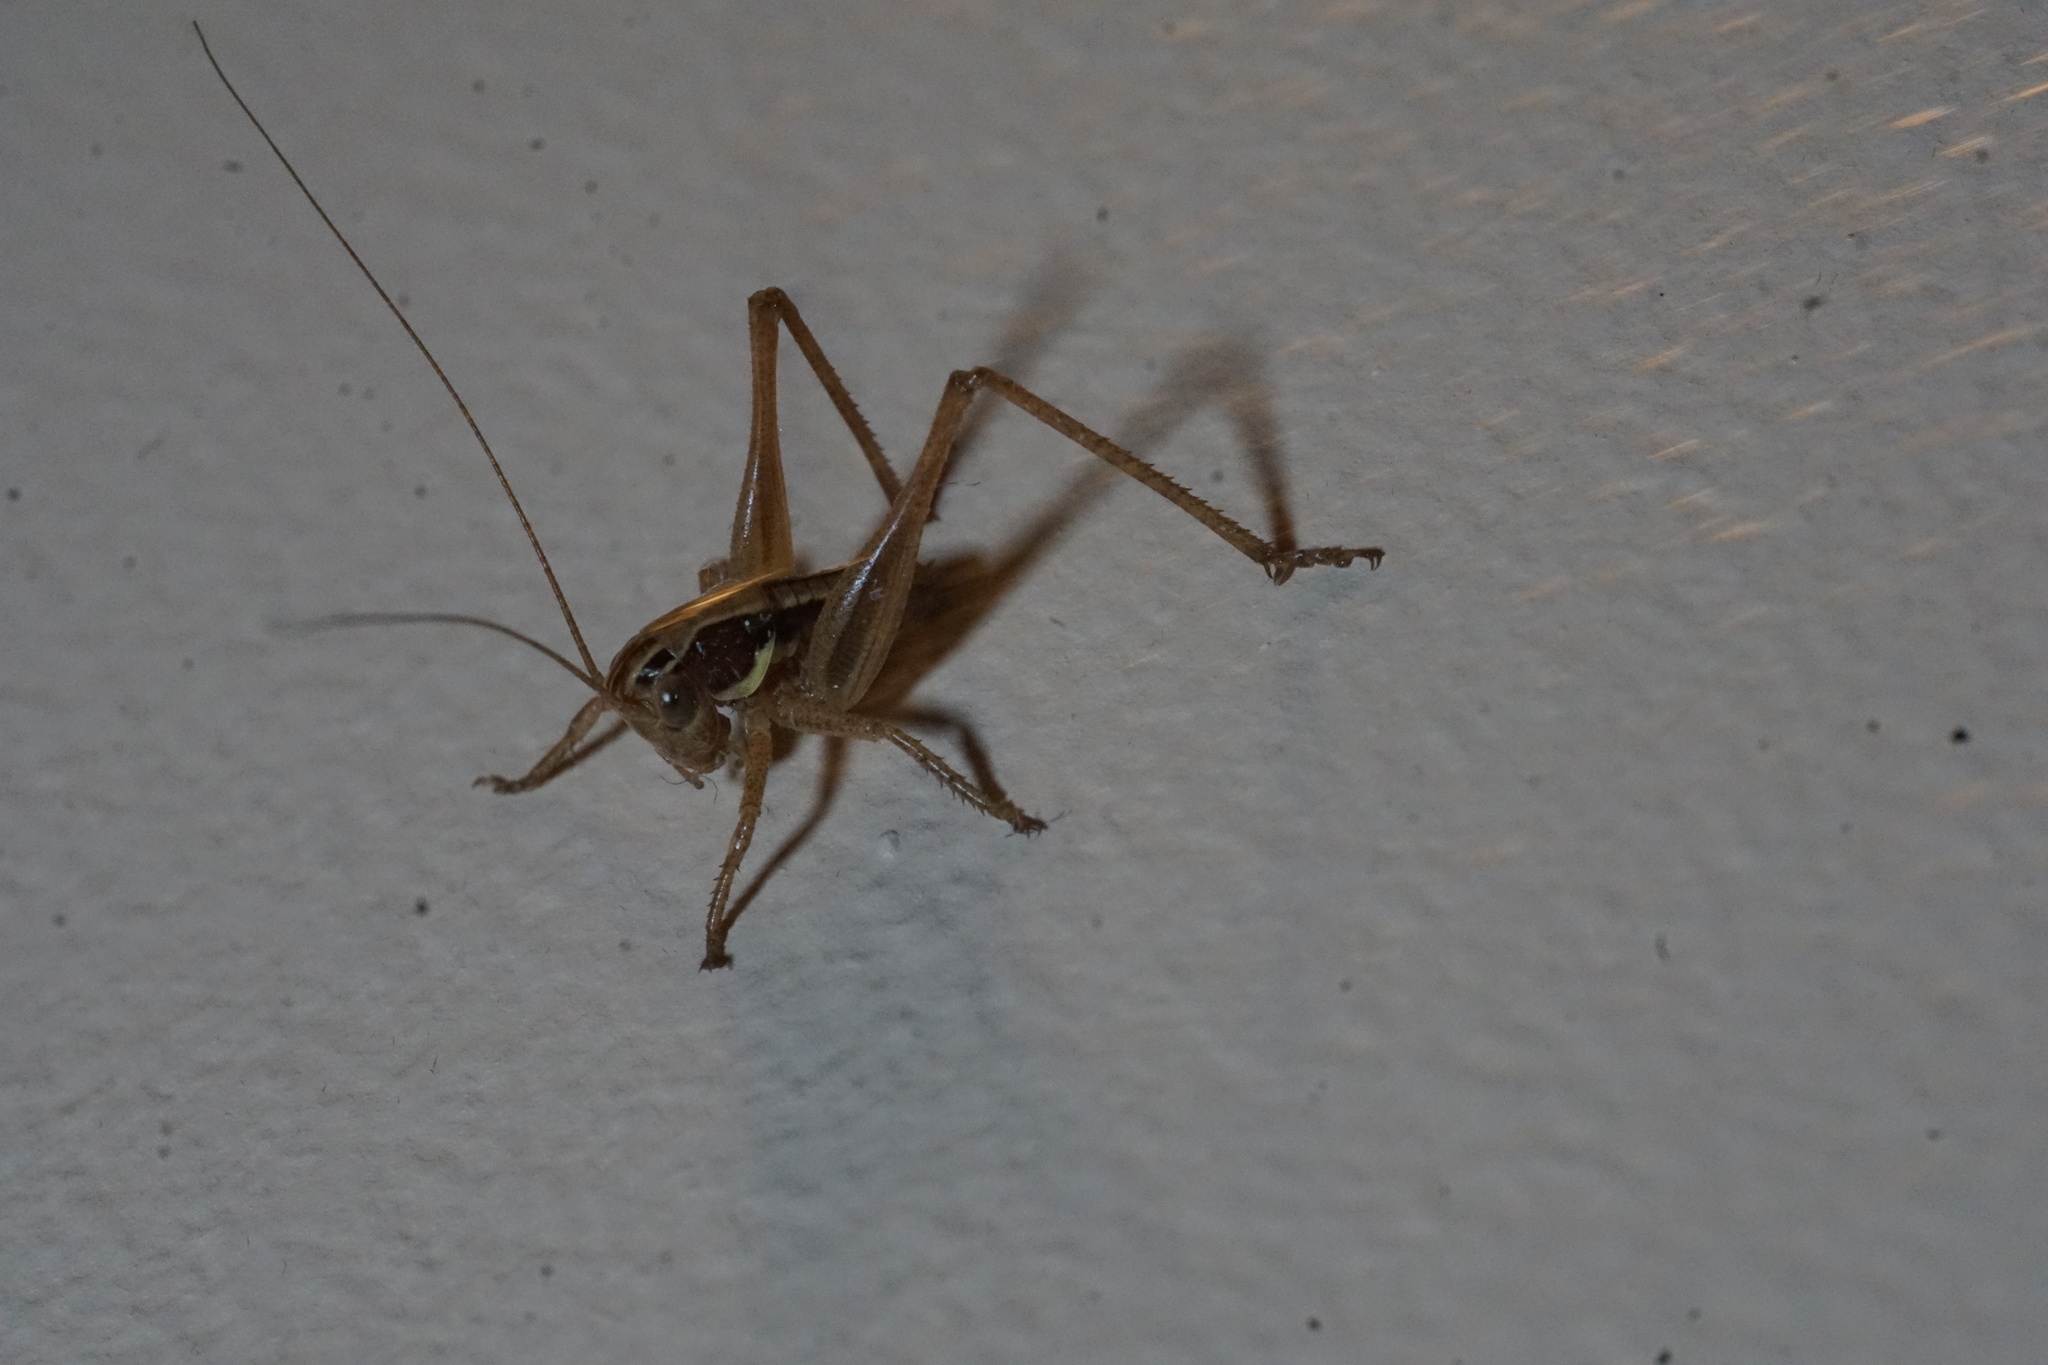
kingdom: Animalia
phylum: Arthropoda
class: Insecta
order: Orthoptera
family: Tettigoniidae
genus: Tessellana
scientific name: Tessellana tessellata
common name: Grasshopper
